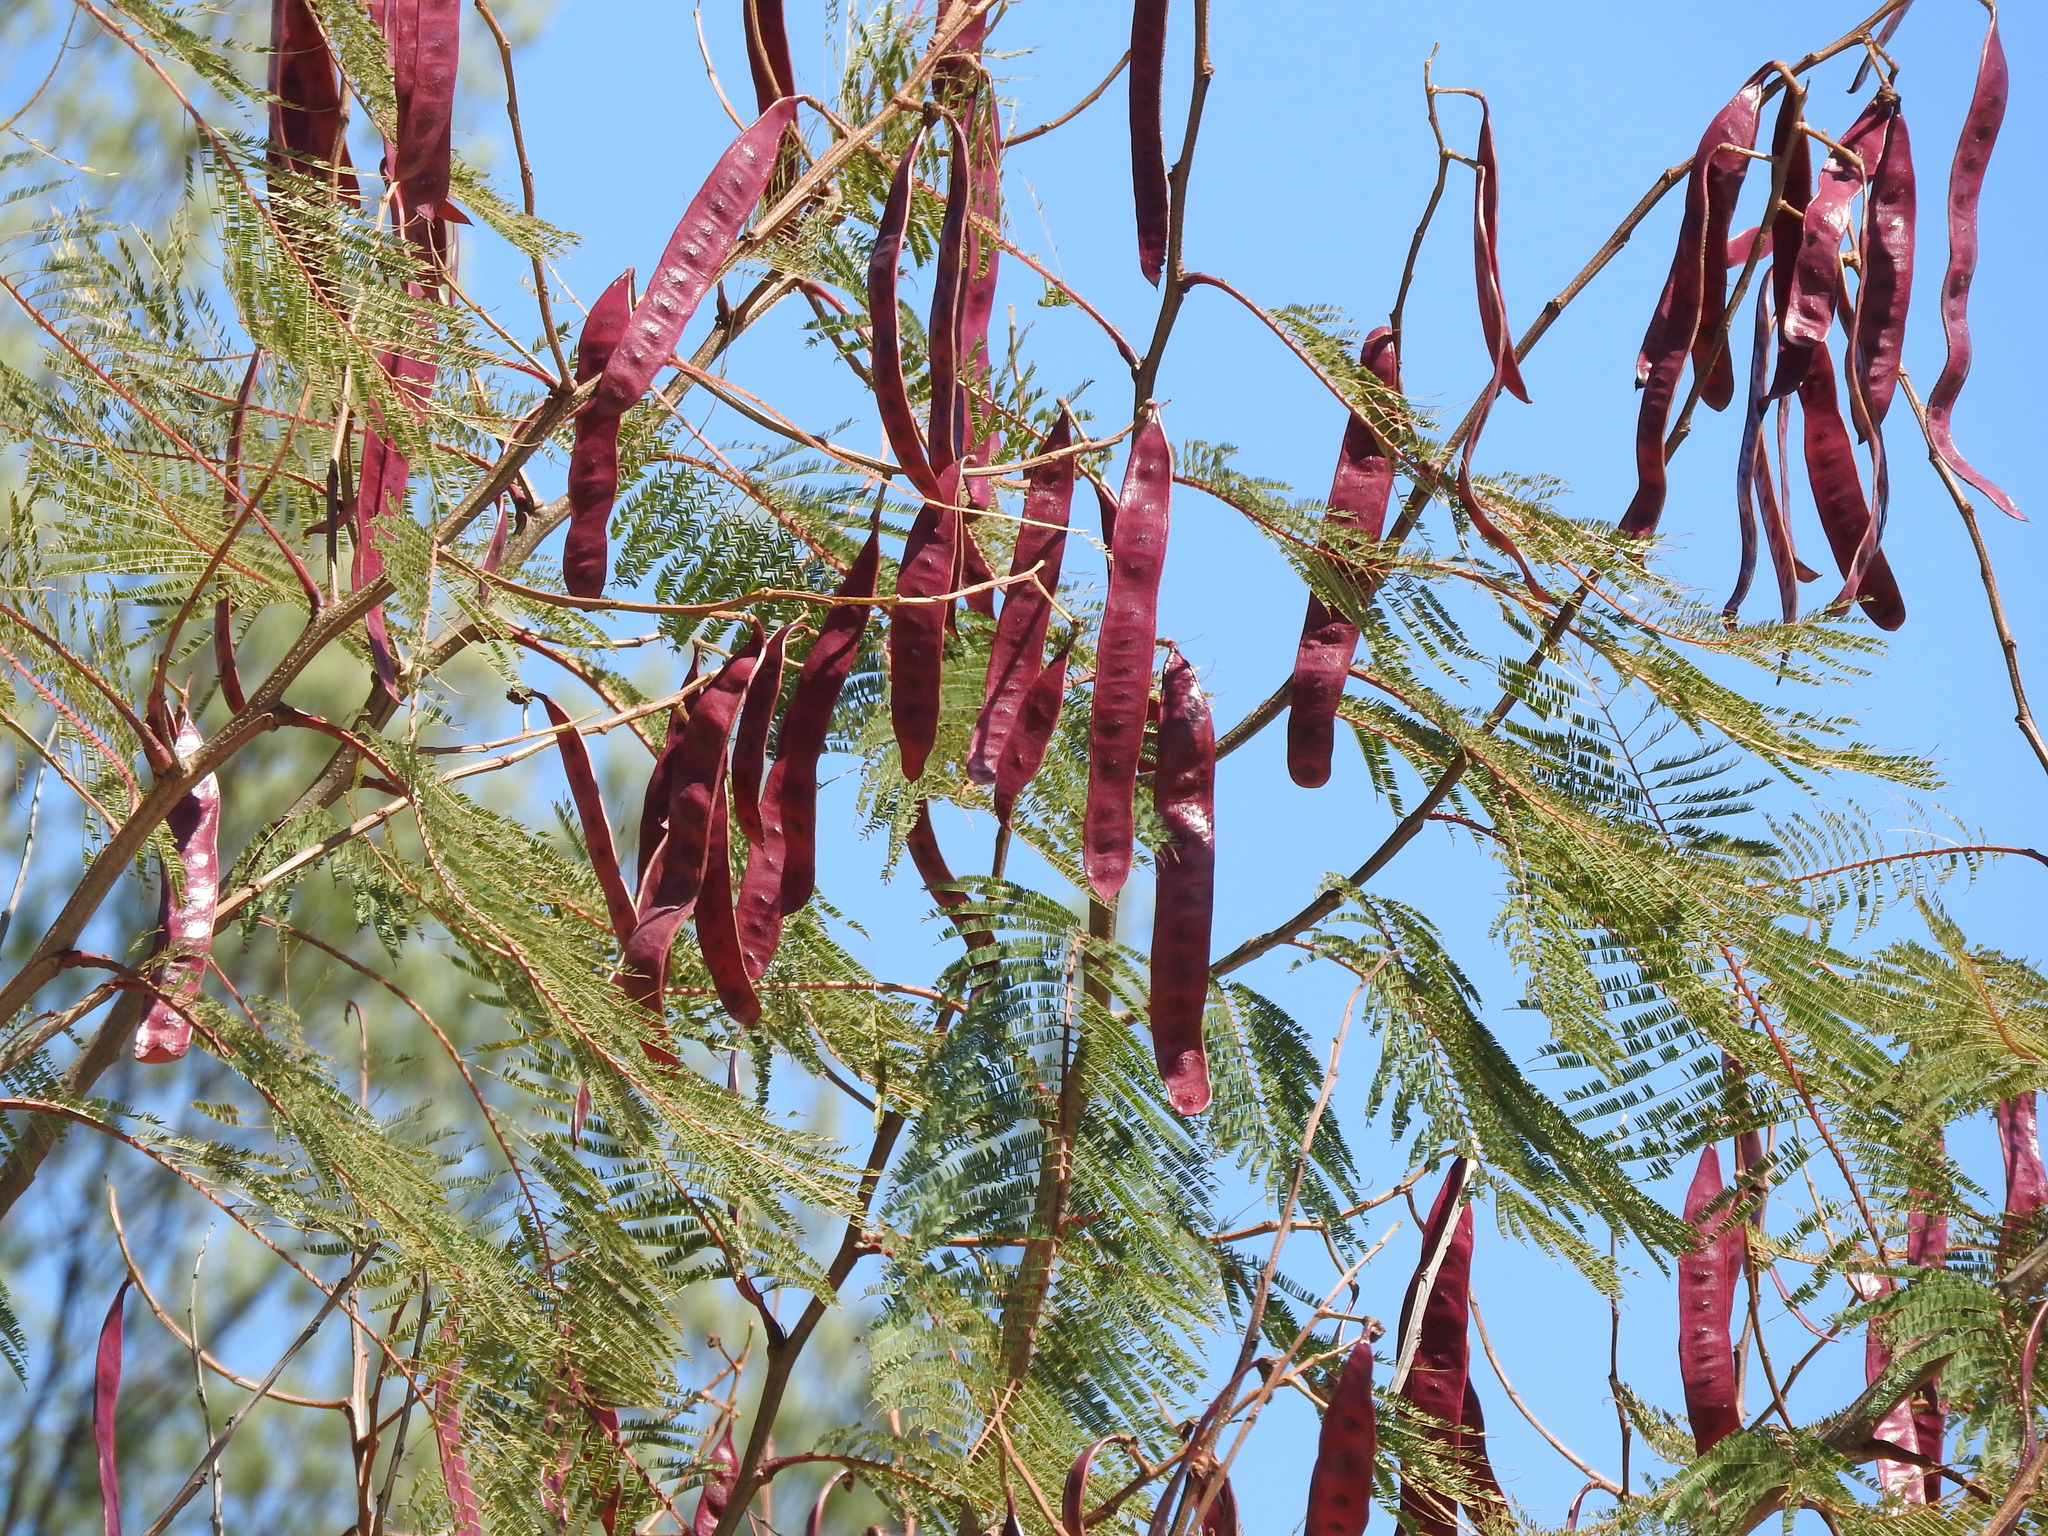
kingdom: Plantae
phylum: Tracheophyta
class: Magnoliopsida
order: Fabales
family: Fabaceae
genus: Leucaena
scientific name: Leucaena leucocephala
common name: White leadtree
